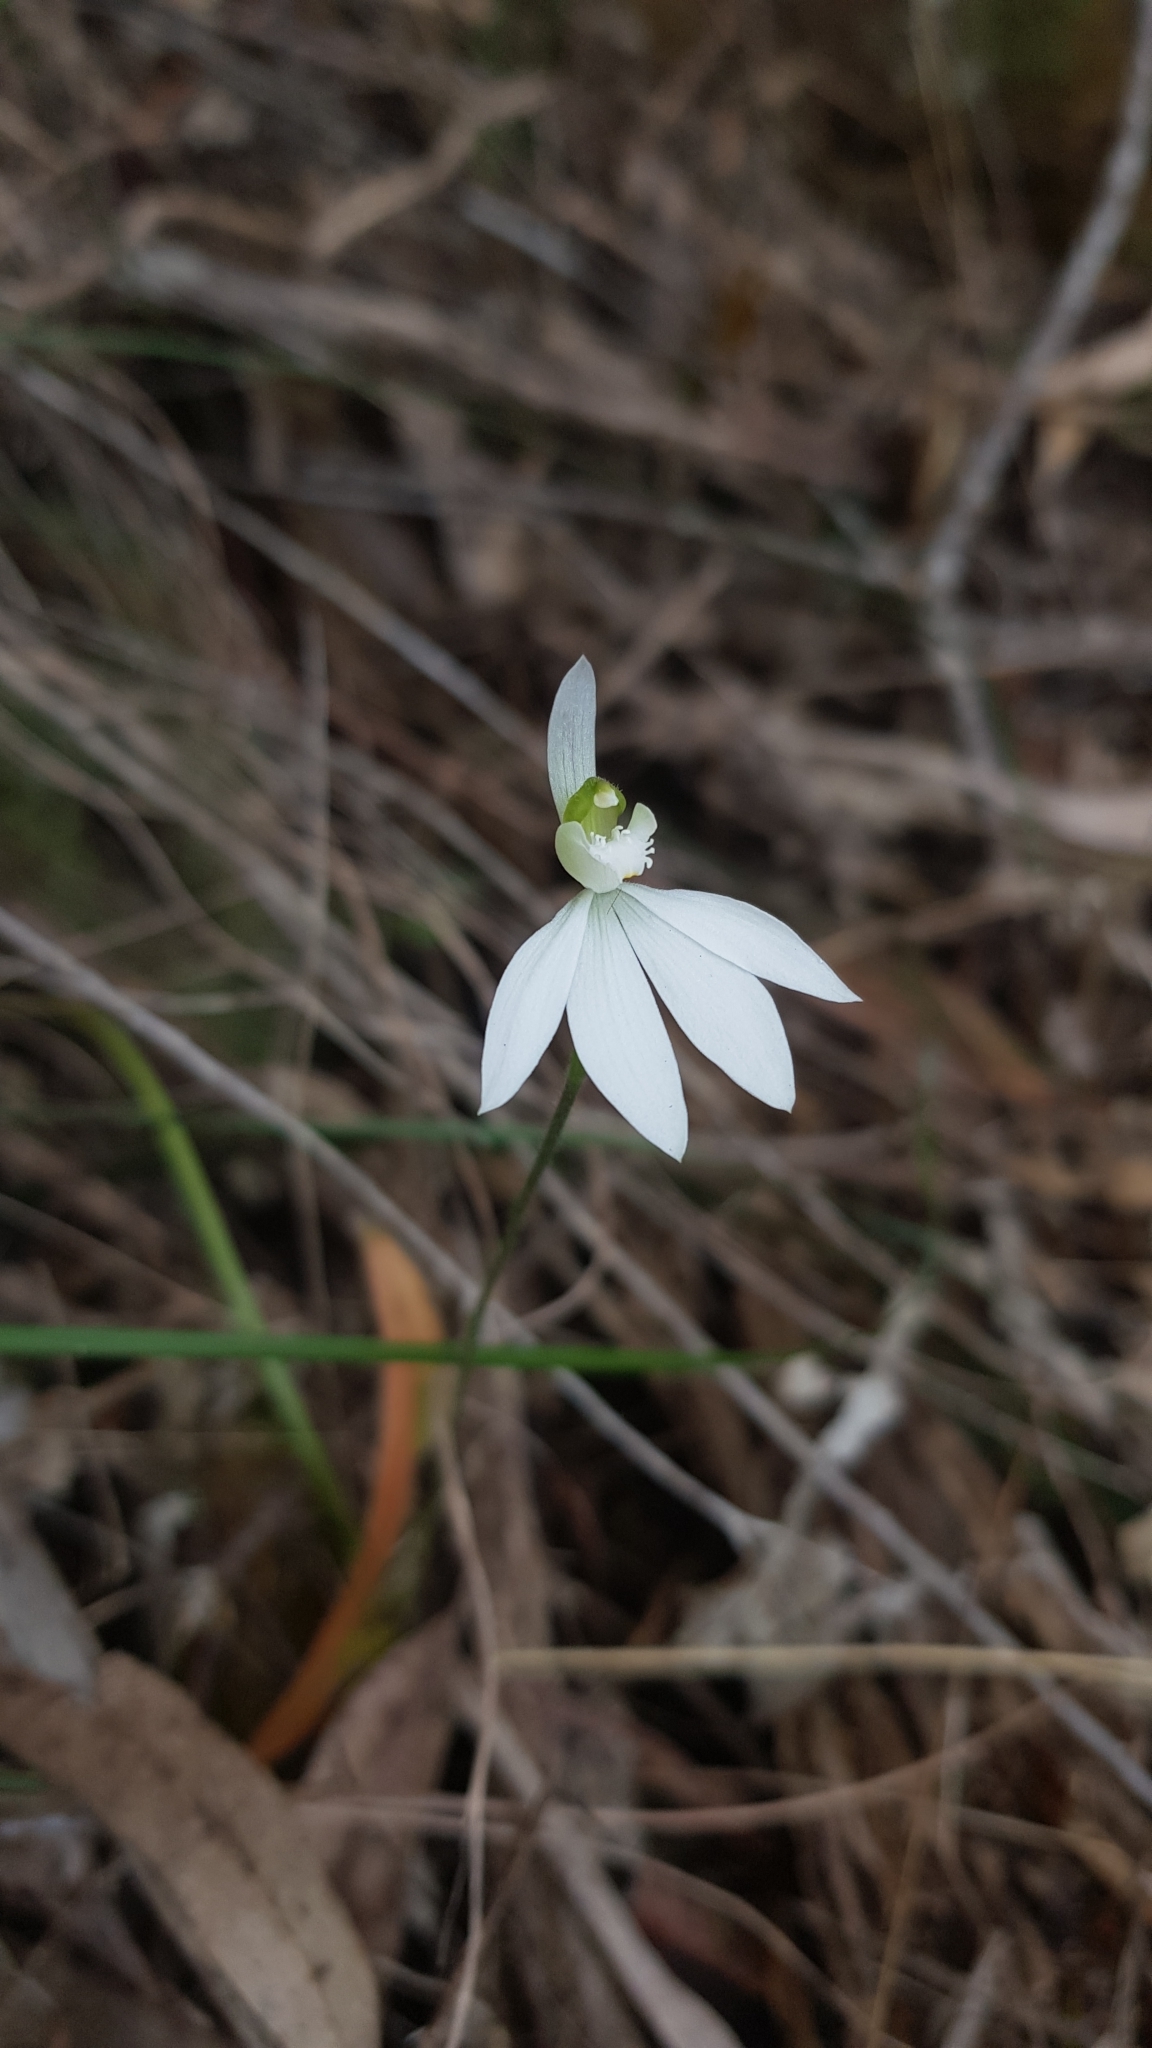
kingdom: Plantae
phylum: Tracheophyta
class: Liliopsida
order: Asparagales
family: Orchidaceae
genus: Caladenia
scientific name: Caladenia catenata
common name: White caladenia
